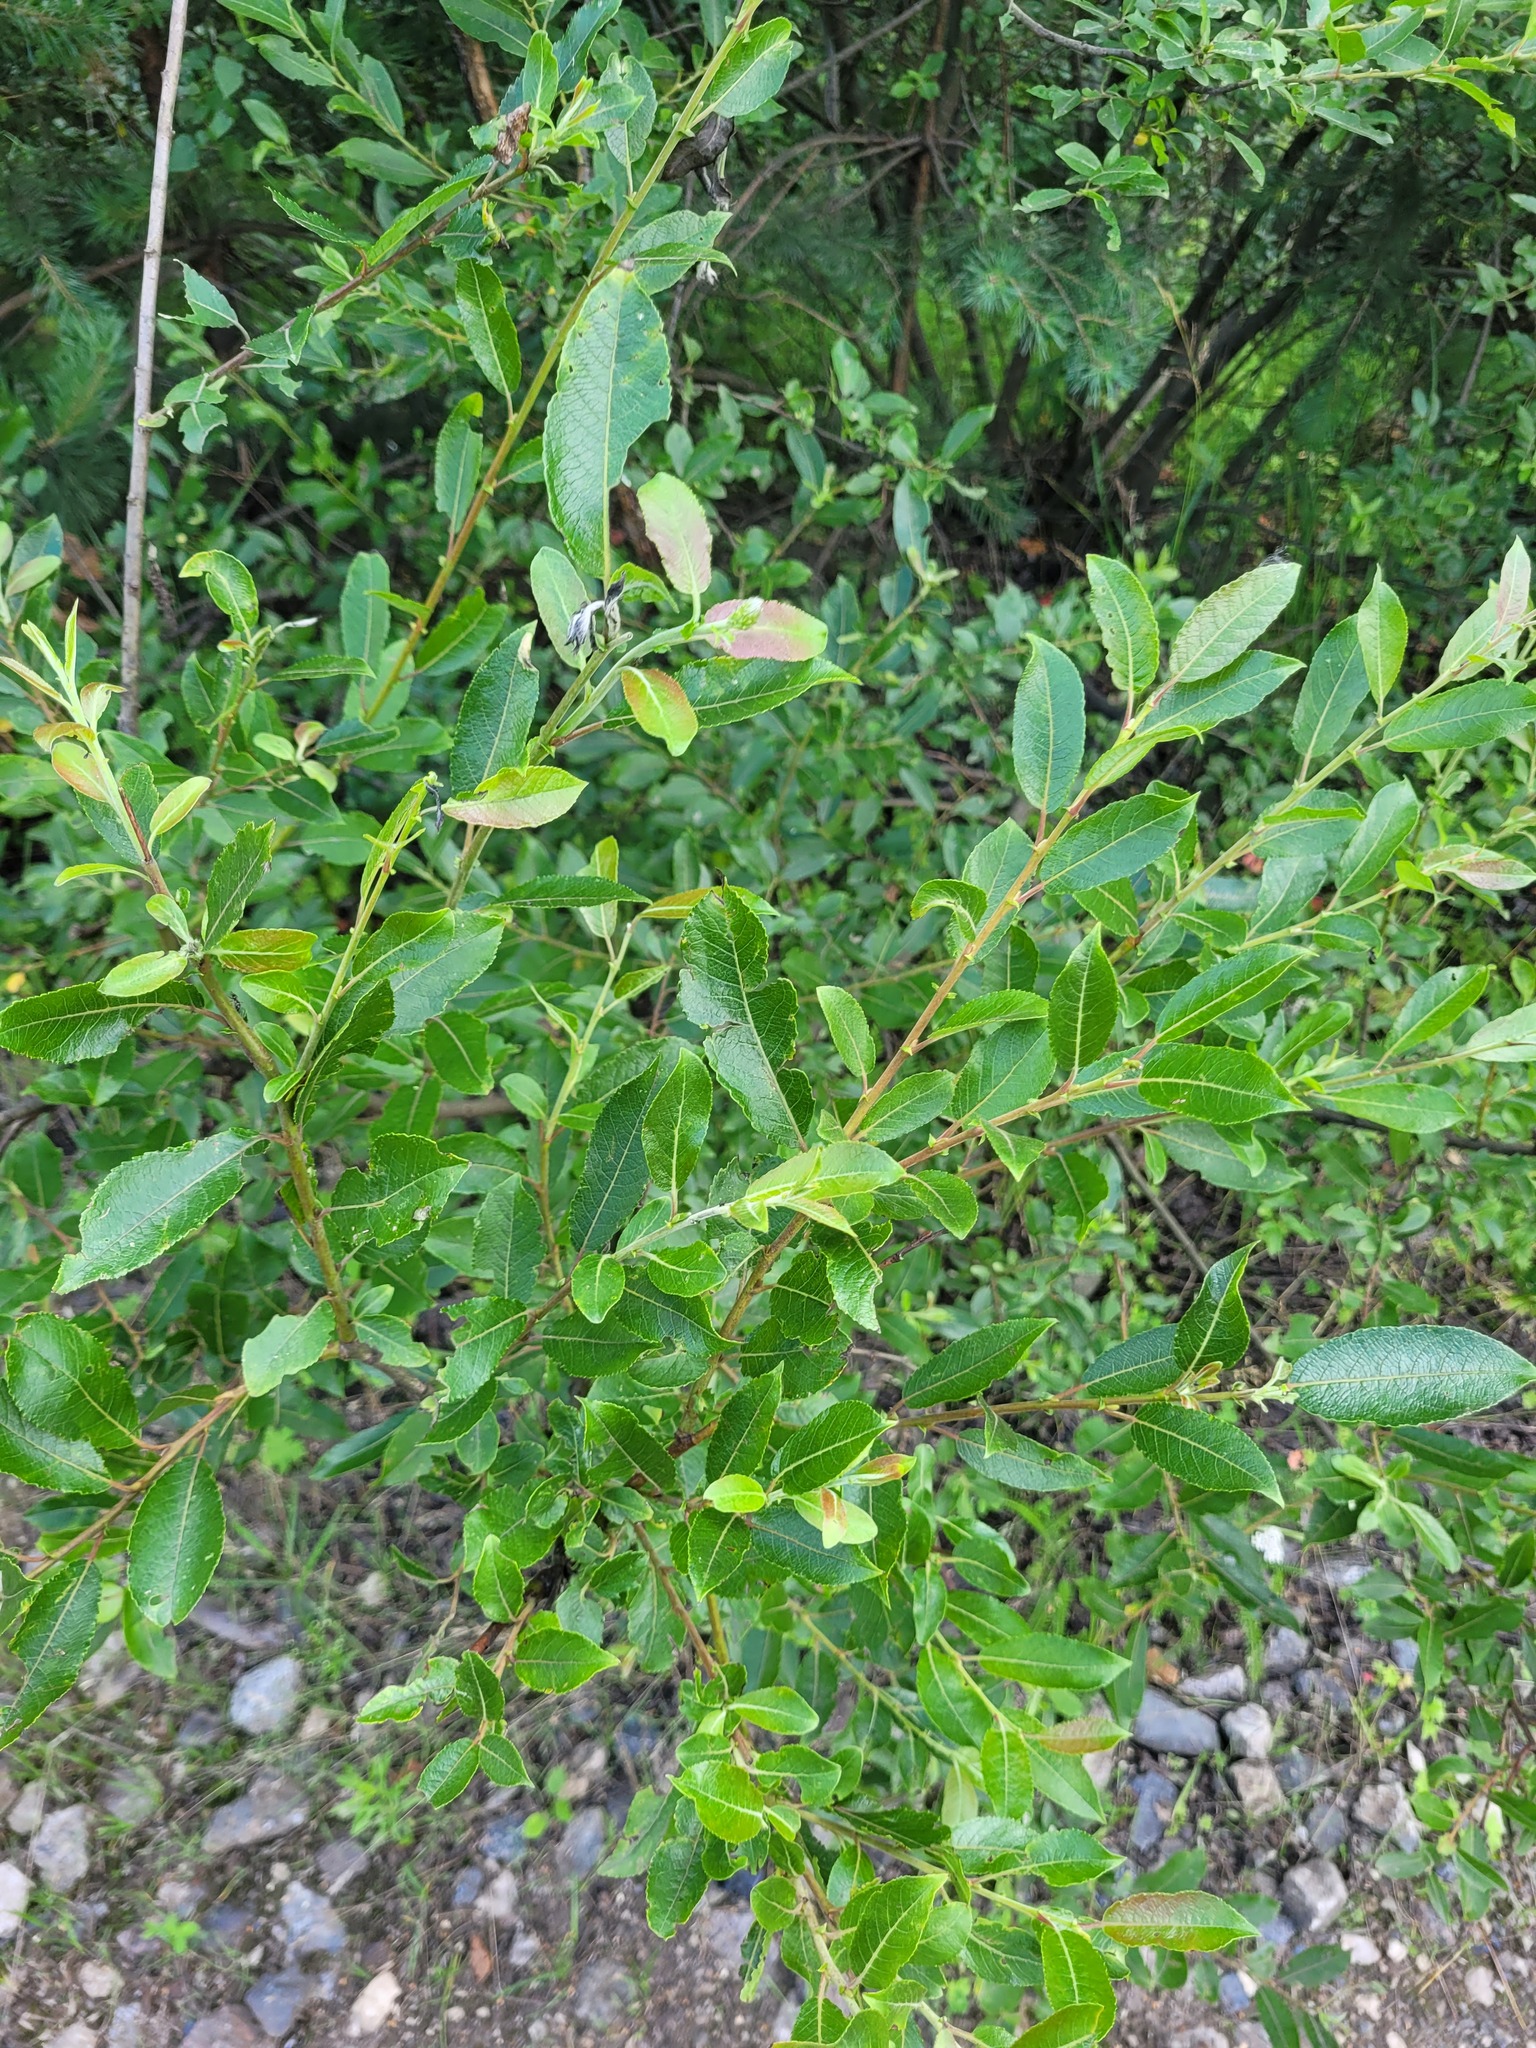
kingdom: Plantae
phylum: Tracheophyta
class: Magnoliopsida
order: Malpighiales
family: Salicaceae
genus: Salix
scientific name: Salix myrsinifolia
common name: Dark-leaved willow
